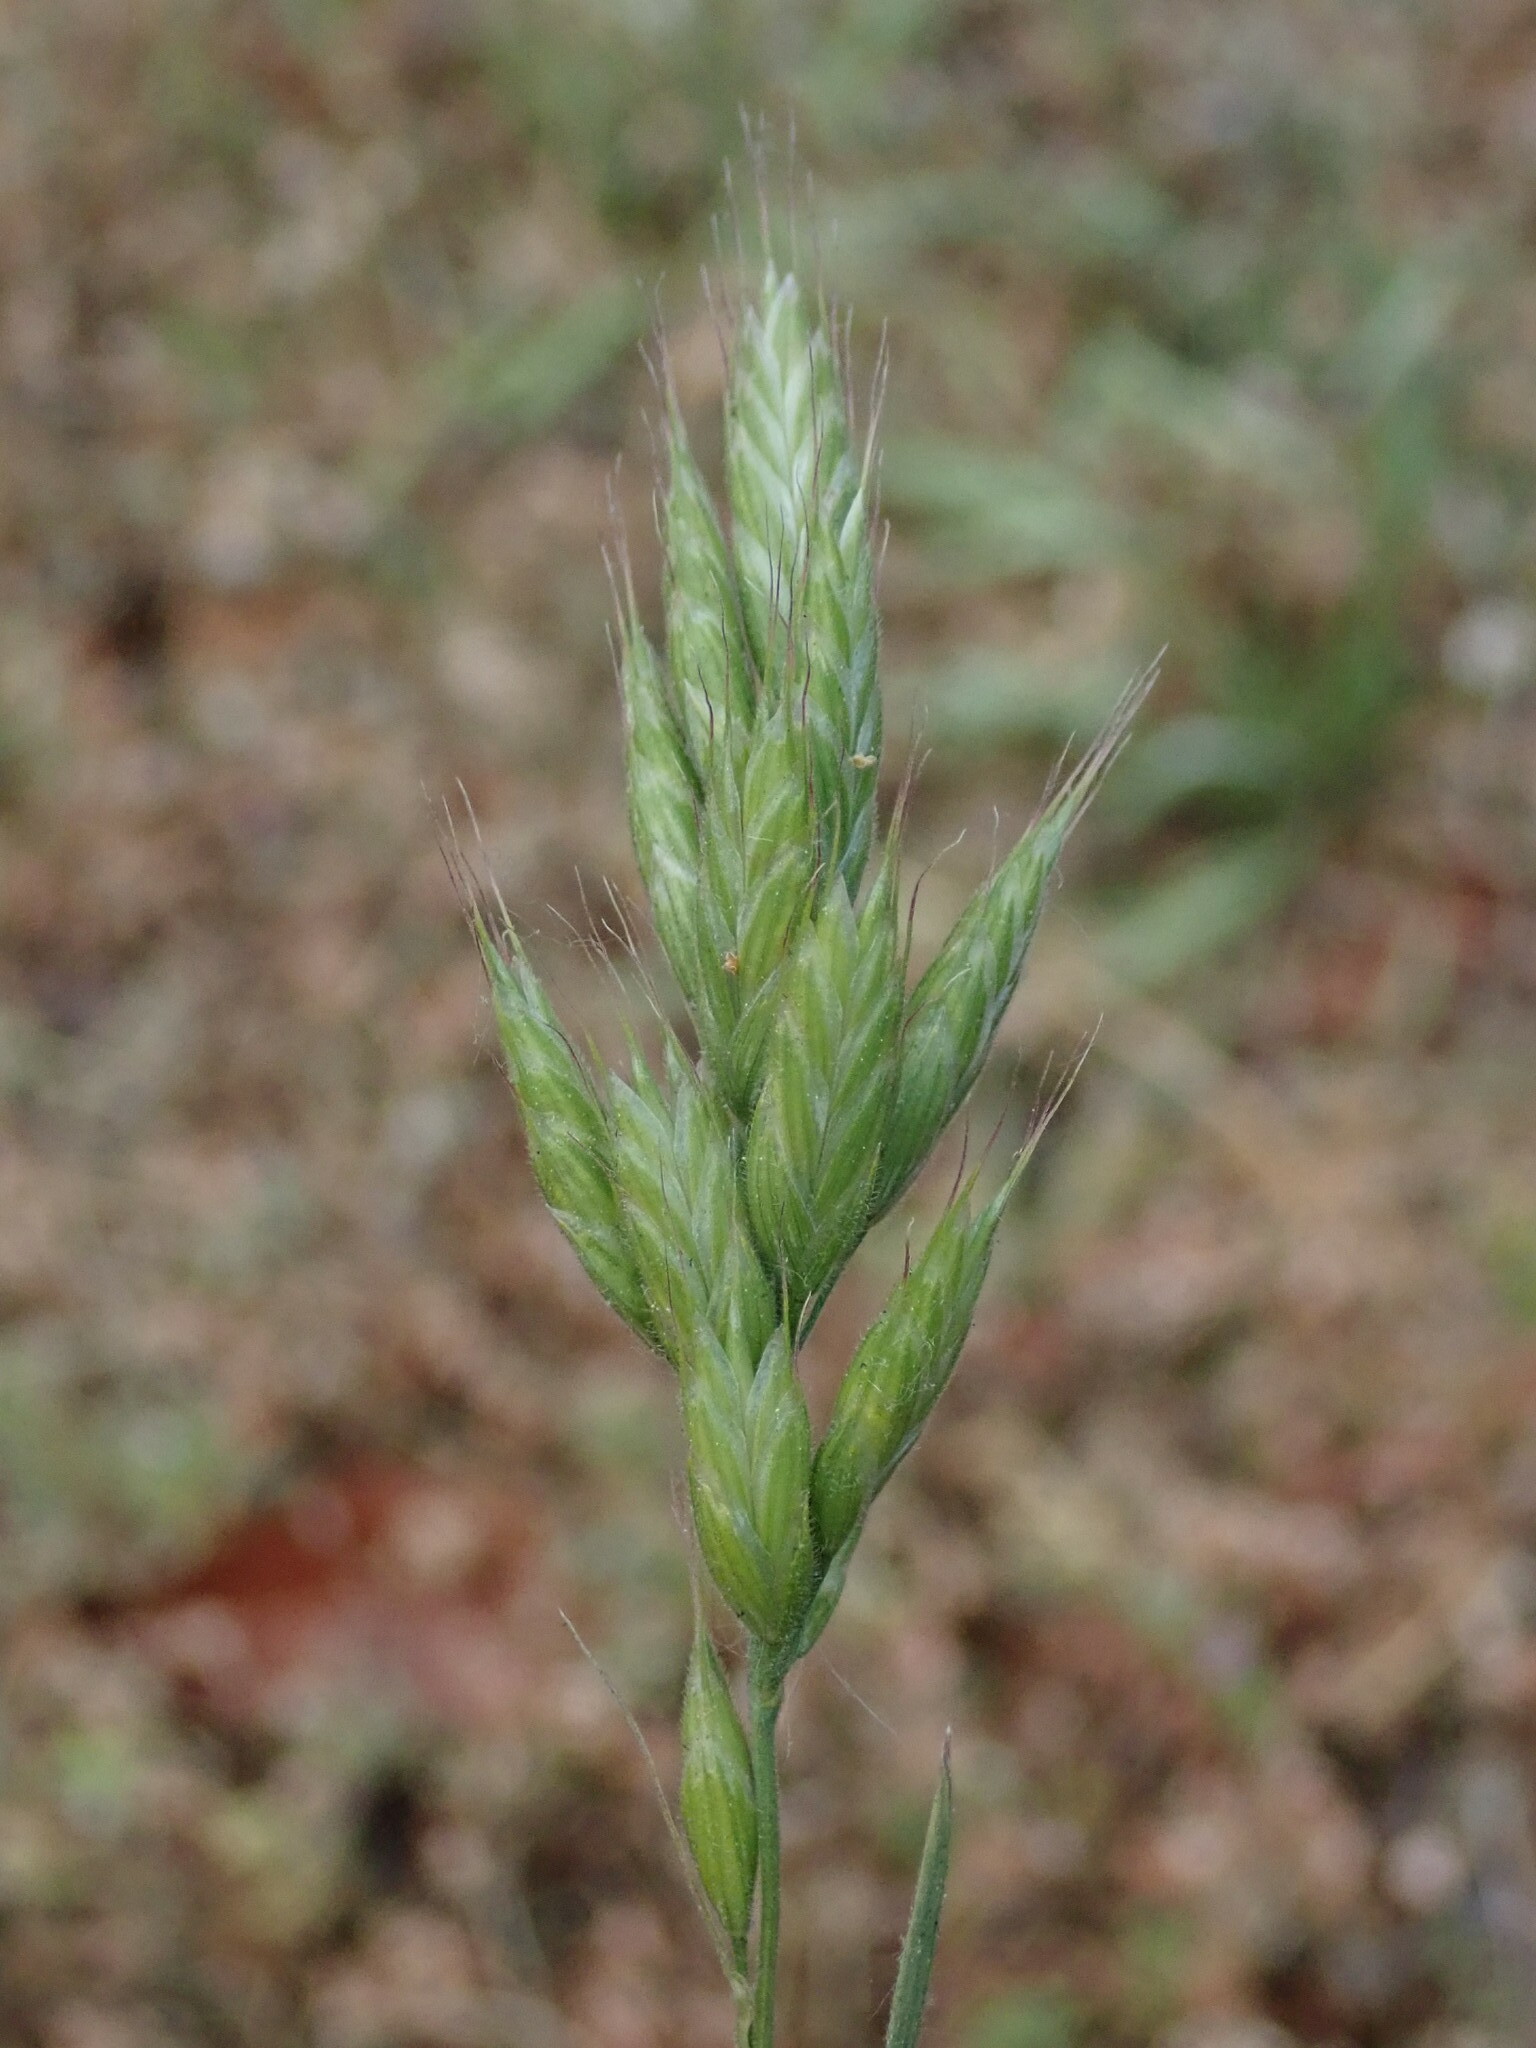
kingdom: Plantae
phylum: Tracheophyta
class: Liliopsida
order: Poales
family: Poaceae
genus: Bromus
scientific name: Bromus hordeaceus
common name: Soft brome
